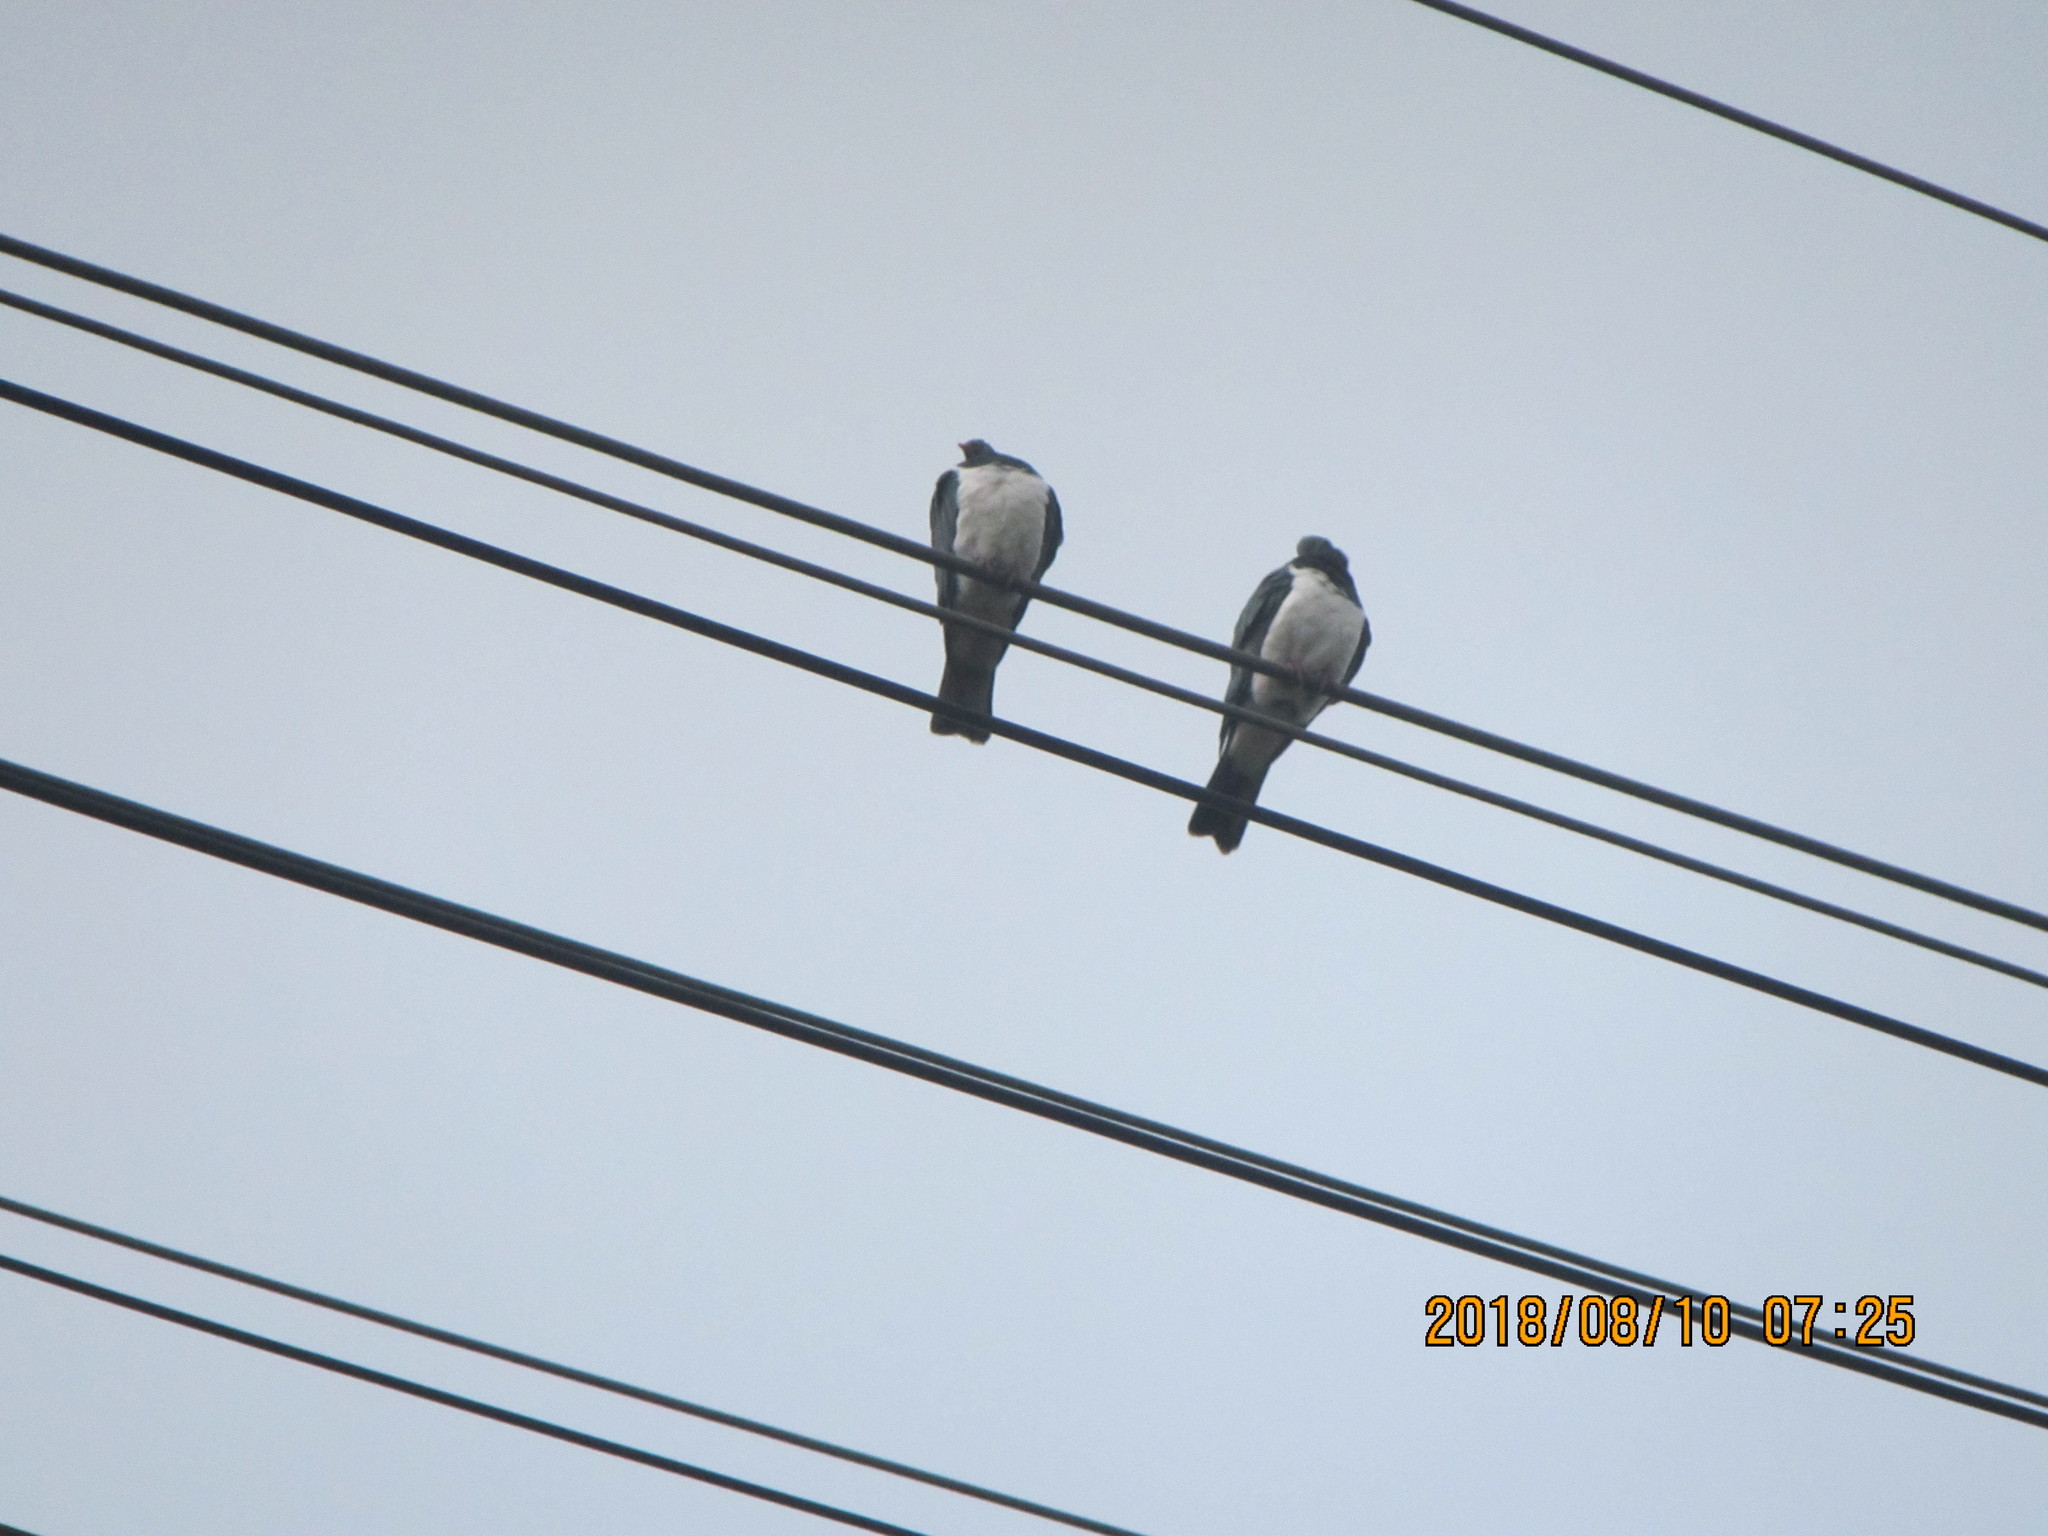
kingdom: Animalia
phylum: Chordata
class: Aves
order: Columbiformes
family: Columbidae
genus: Hemiphaga
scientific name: Hemiphaga novaeseelandiae
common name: New zealand pigeon
